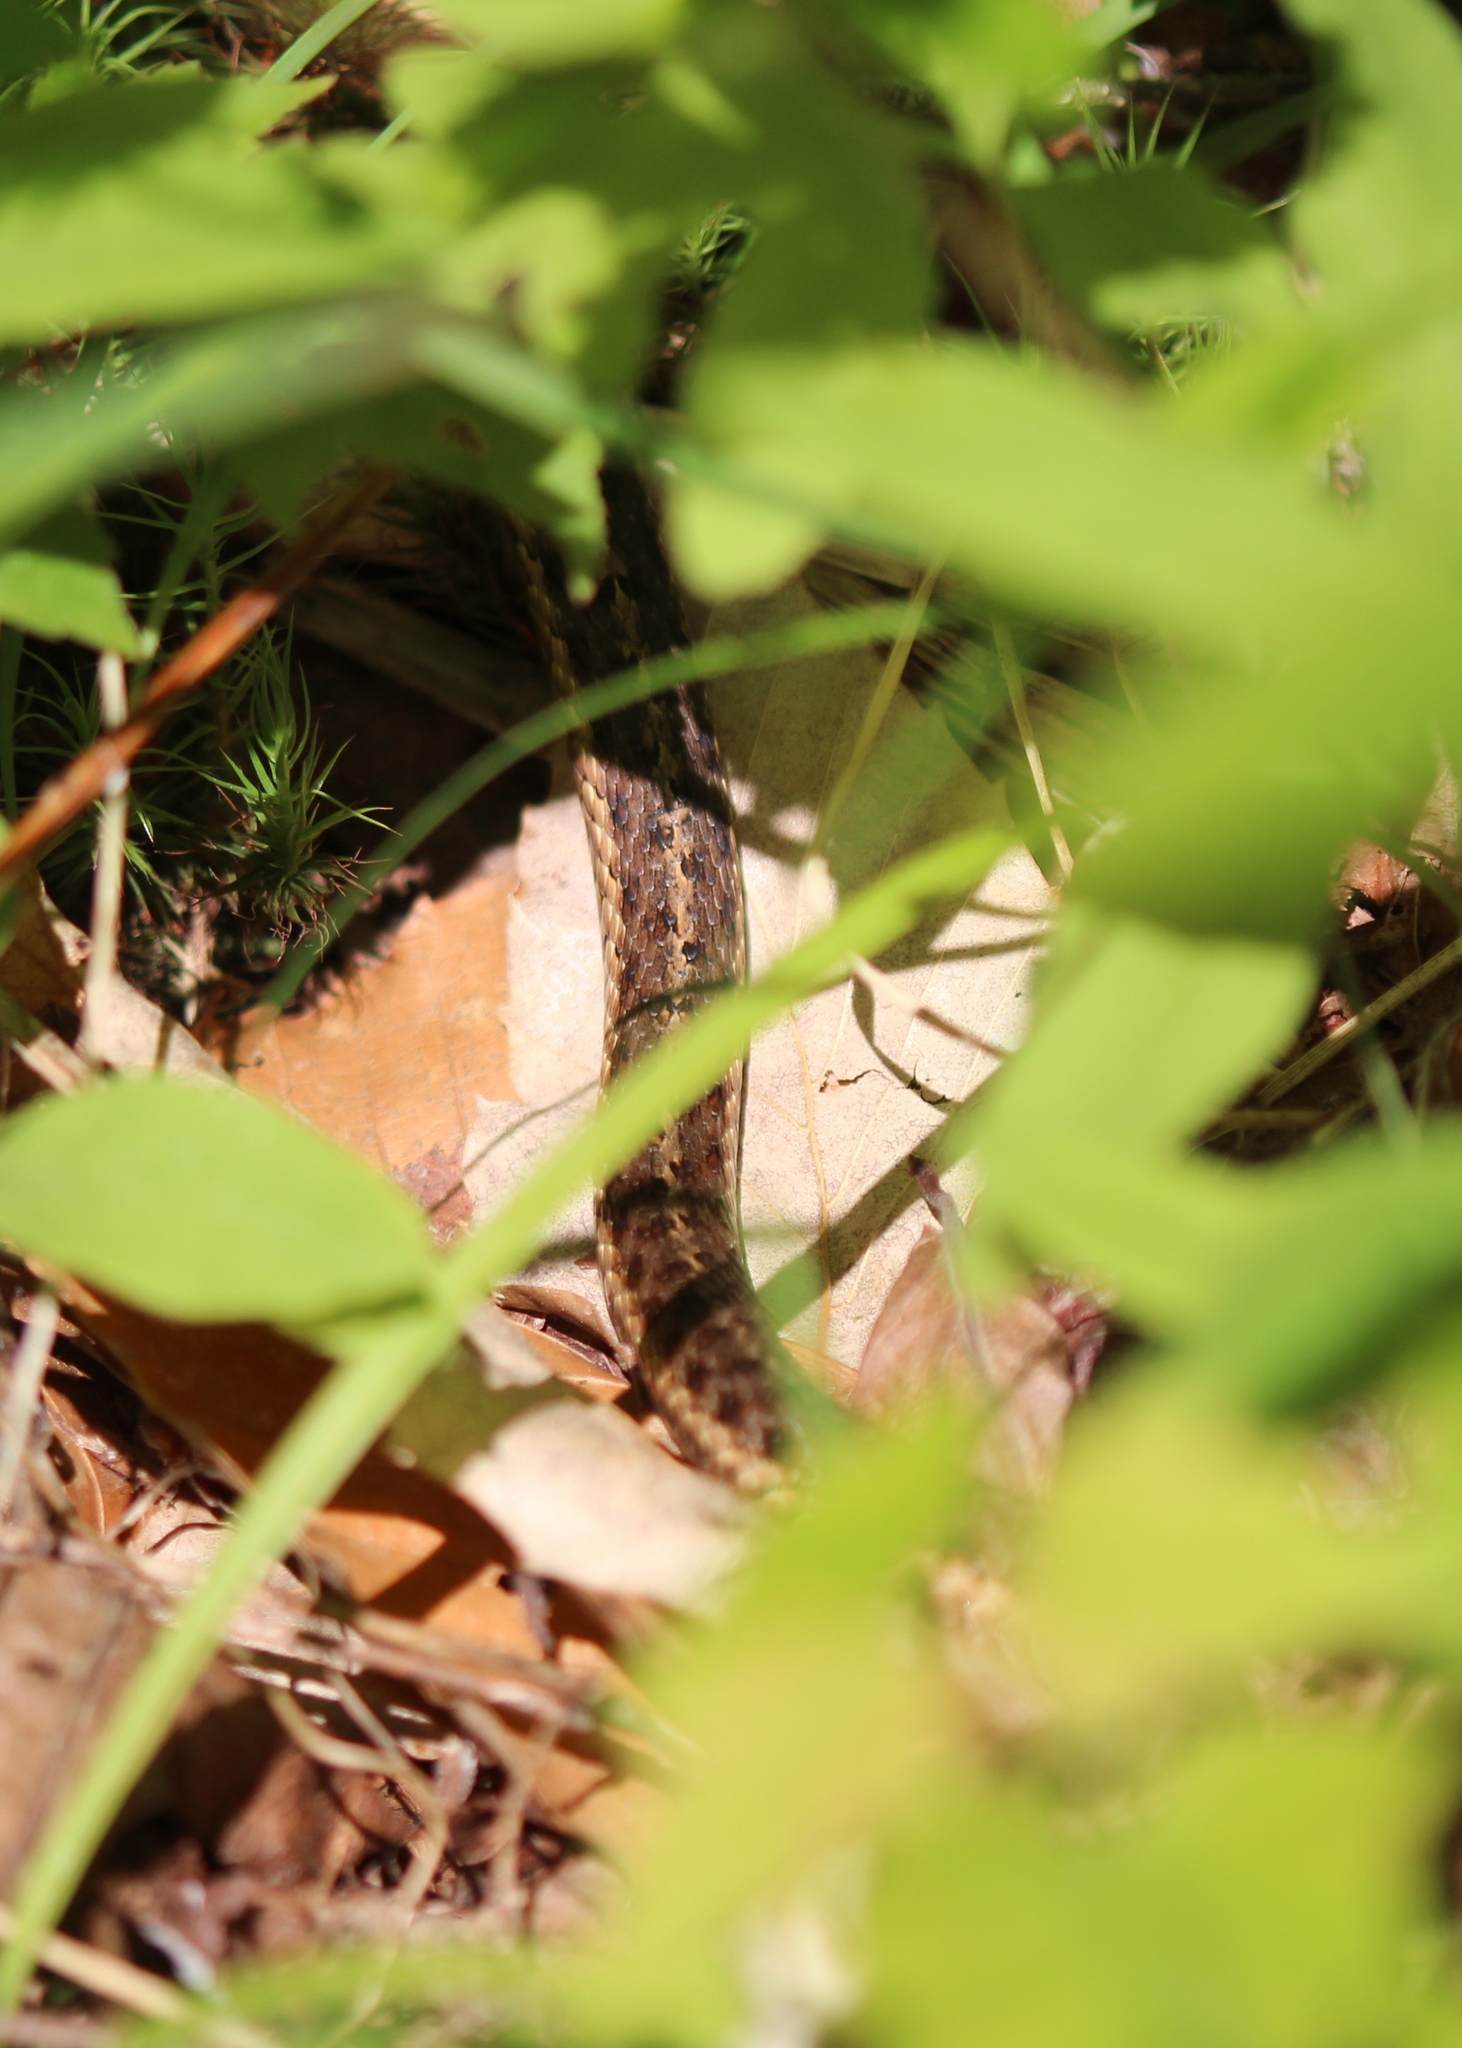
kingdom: Animalia
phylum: Chordata
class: Squamata
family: Colubridae
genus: Thamnophis
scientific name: Thamnophis sirtalis
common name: Common garter snake
